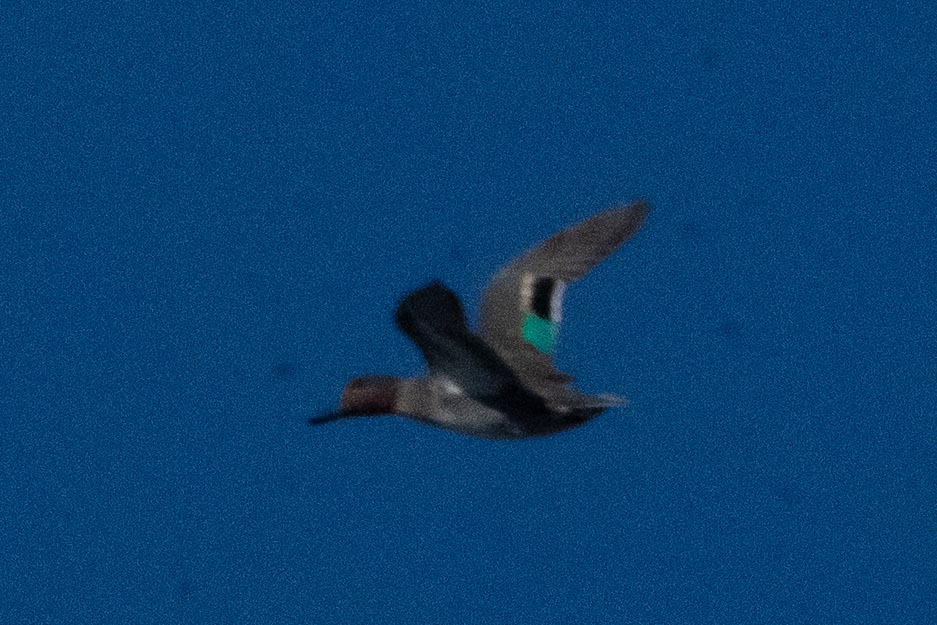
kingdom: Animalia
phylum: Chordata
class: Aves
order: Anseriformes
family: Anatidae
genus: Anas
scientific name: Anas crecca
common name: Eurasian teal
